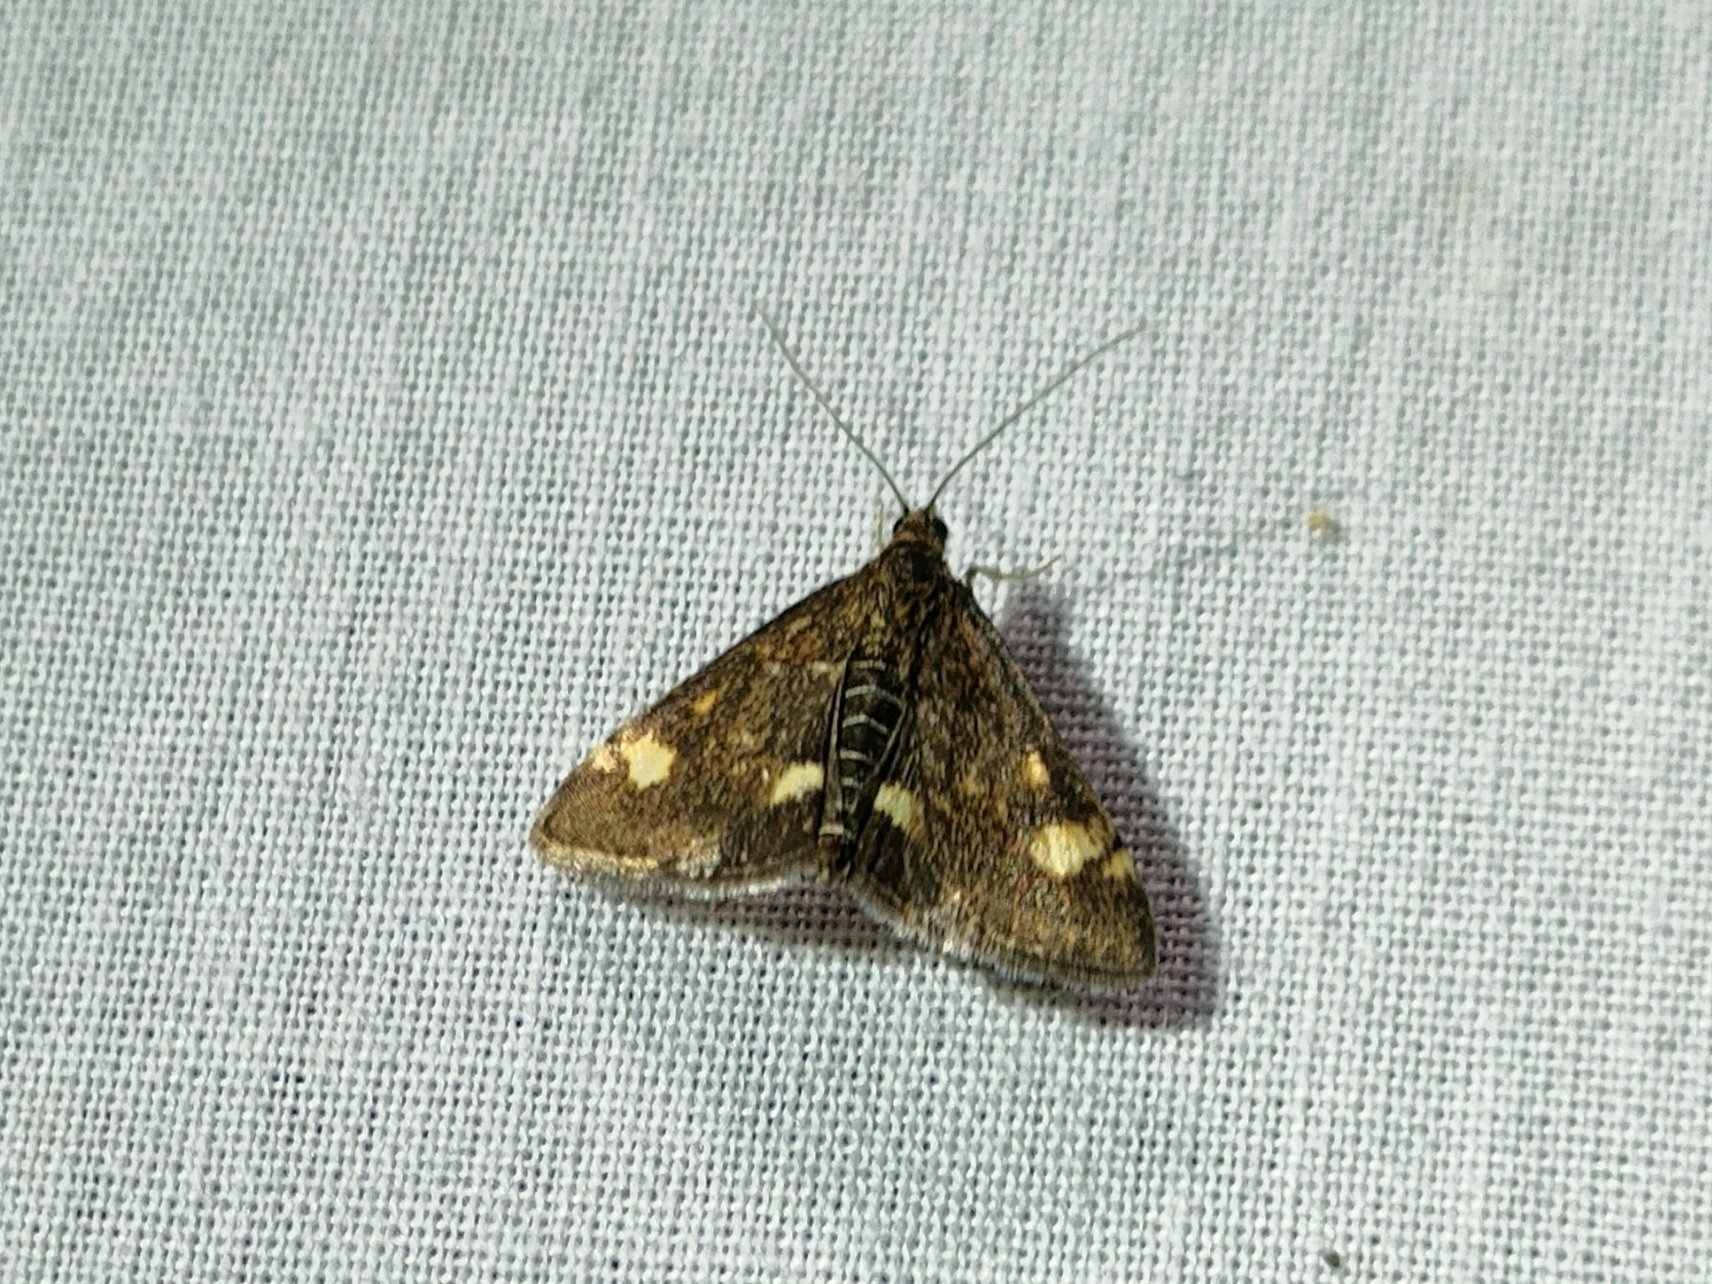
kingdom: Animalia
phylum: Arthropoda
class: Insecta
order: Lepidoptera
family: Crambidae
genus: Pyrausta
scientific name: Pyrausta aurata
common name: Small purple & gold
